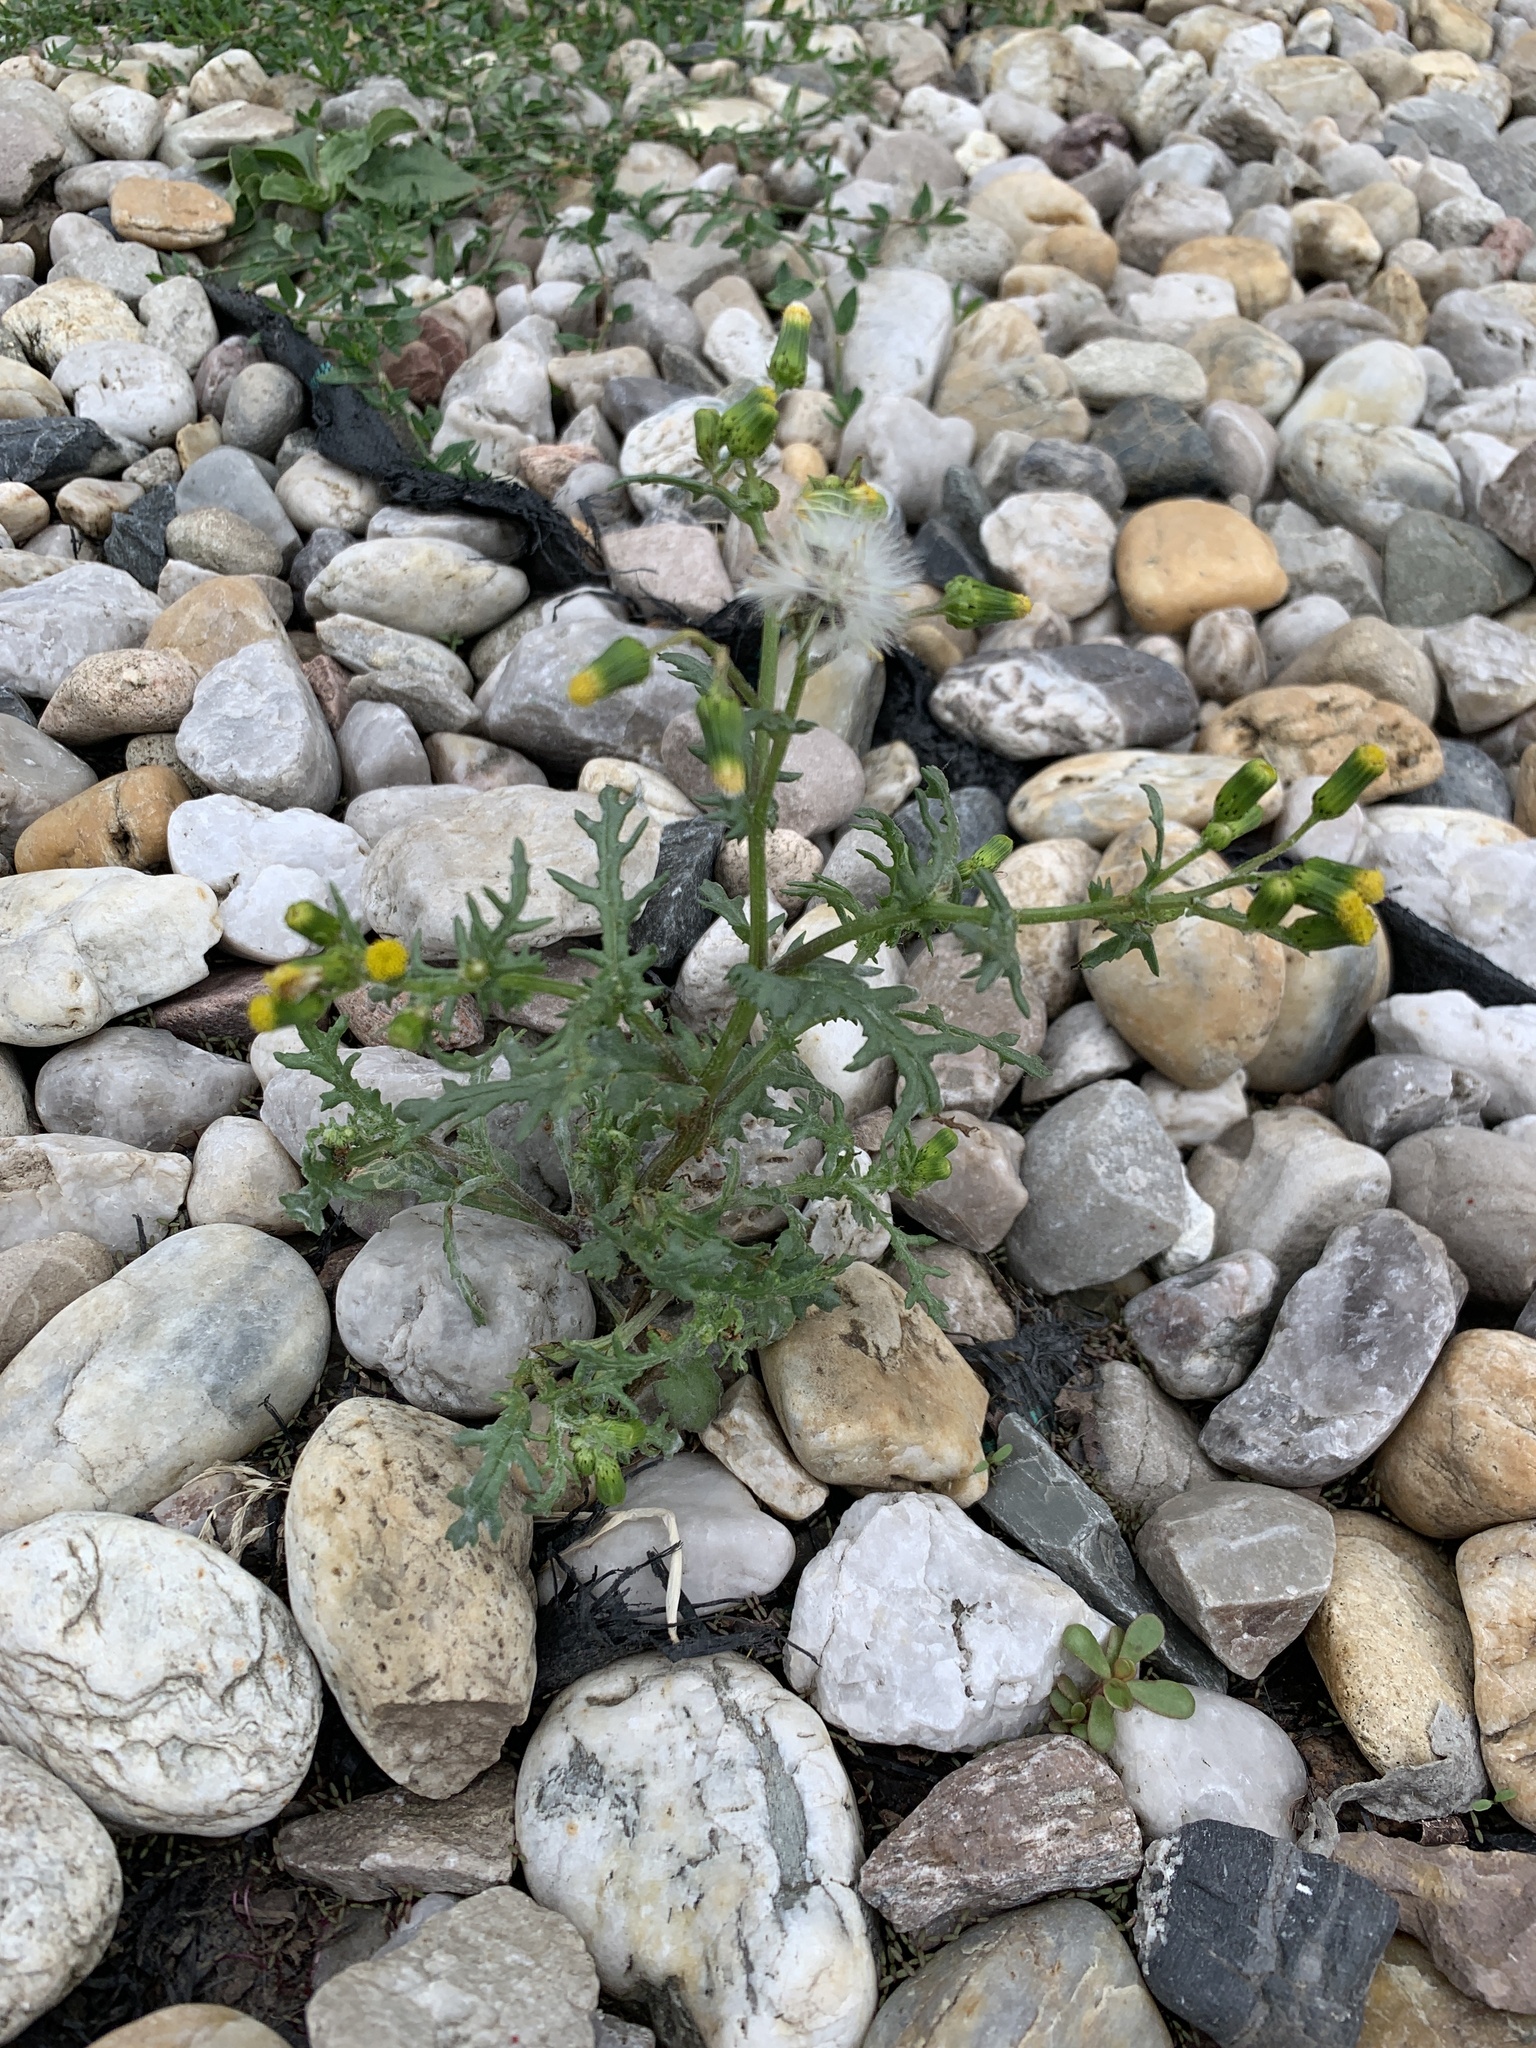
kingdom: Plantae
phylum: Tracheophyta
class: Magnoliopsida
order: Asterales
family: Asteraceae
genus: Senecio
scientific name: Senecio vulgaris
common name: Old-man-in-the-spring
